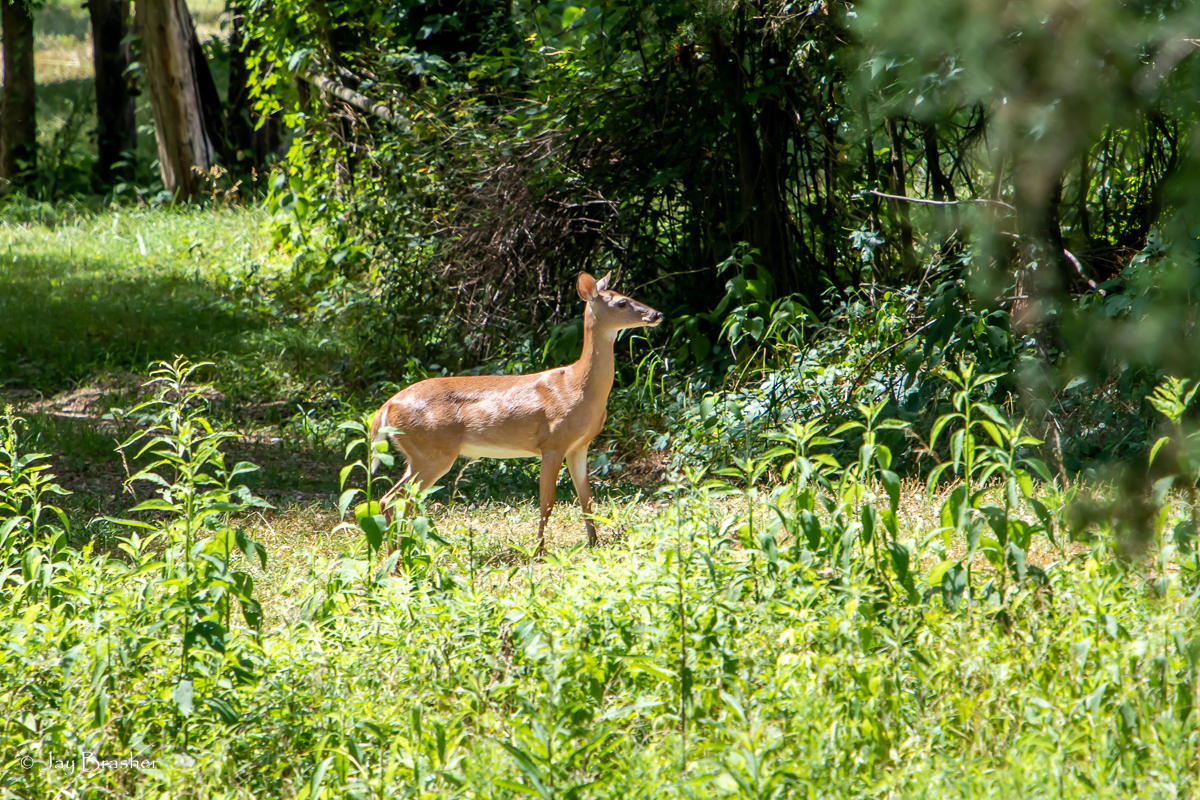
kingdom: Animalia
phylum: Chordata
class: Mammalia
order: Artiodactyla
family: Cervidae
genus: Odocoileus
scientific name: Odocoileus virginianus
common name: White-tailed deer
